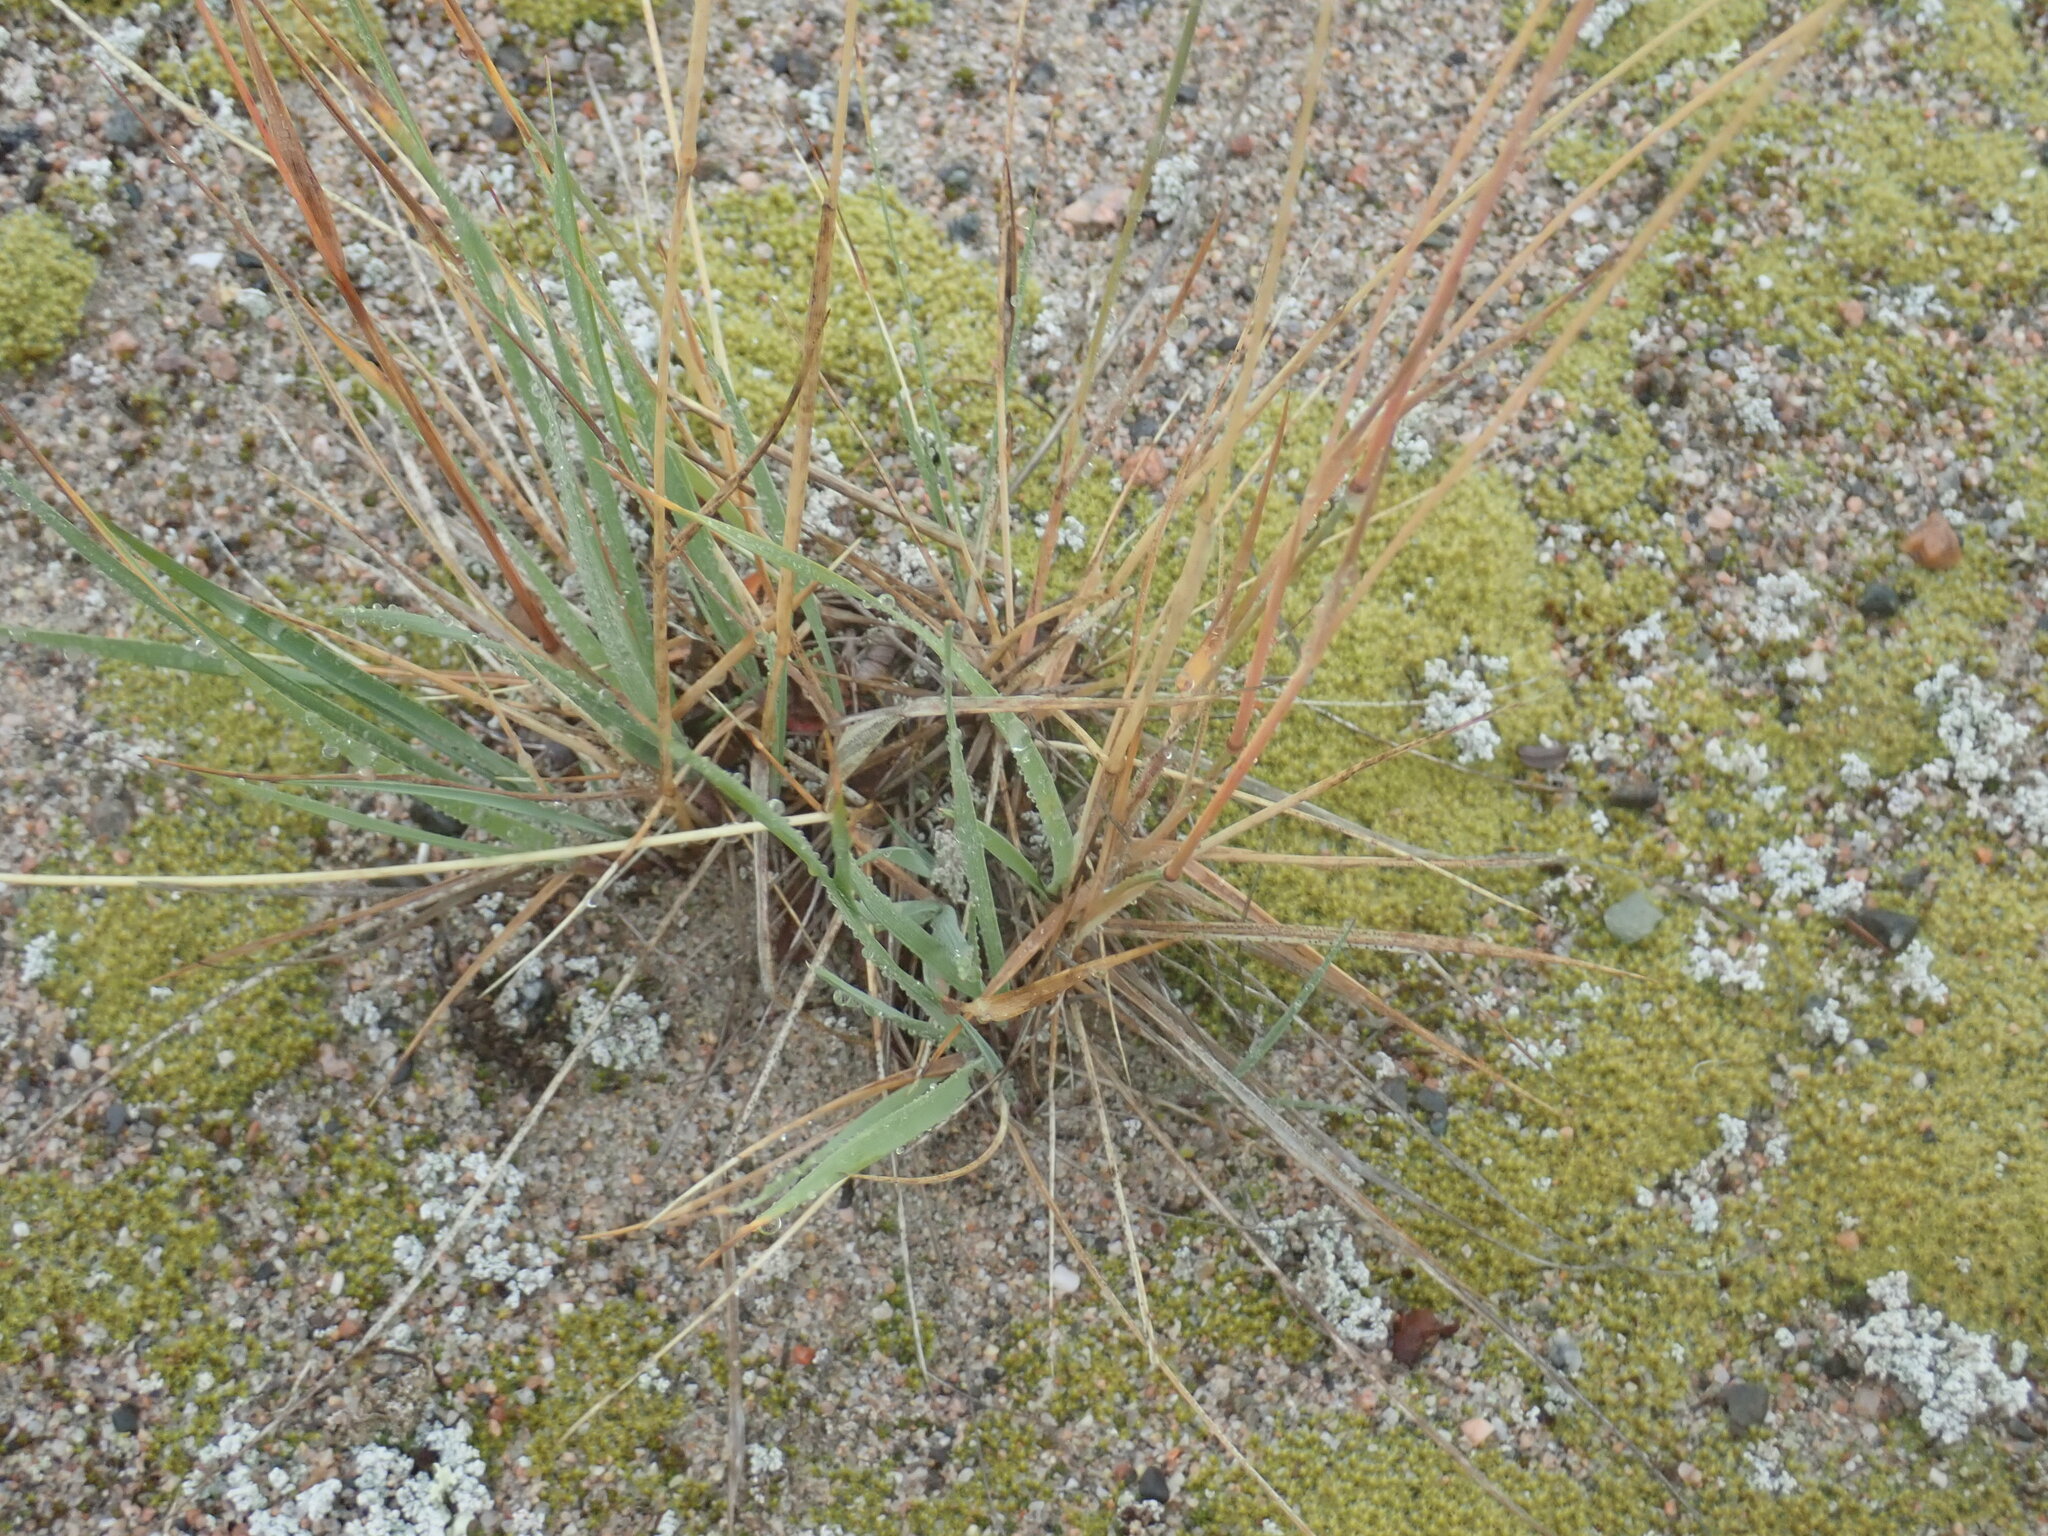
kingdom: Plantae
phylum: Tracheophyta
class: Liliopsida
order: Poales
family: Poaceae
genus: Koeleria
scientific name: Koeleria spicata
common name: Mountain trisetum
